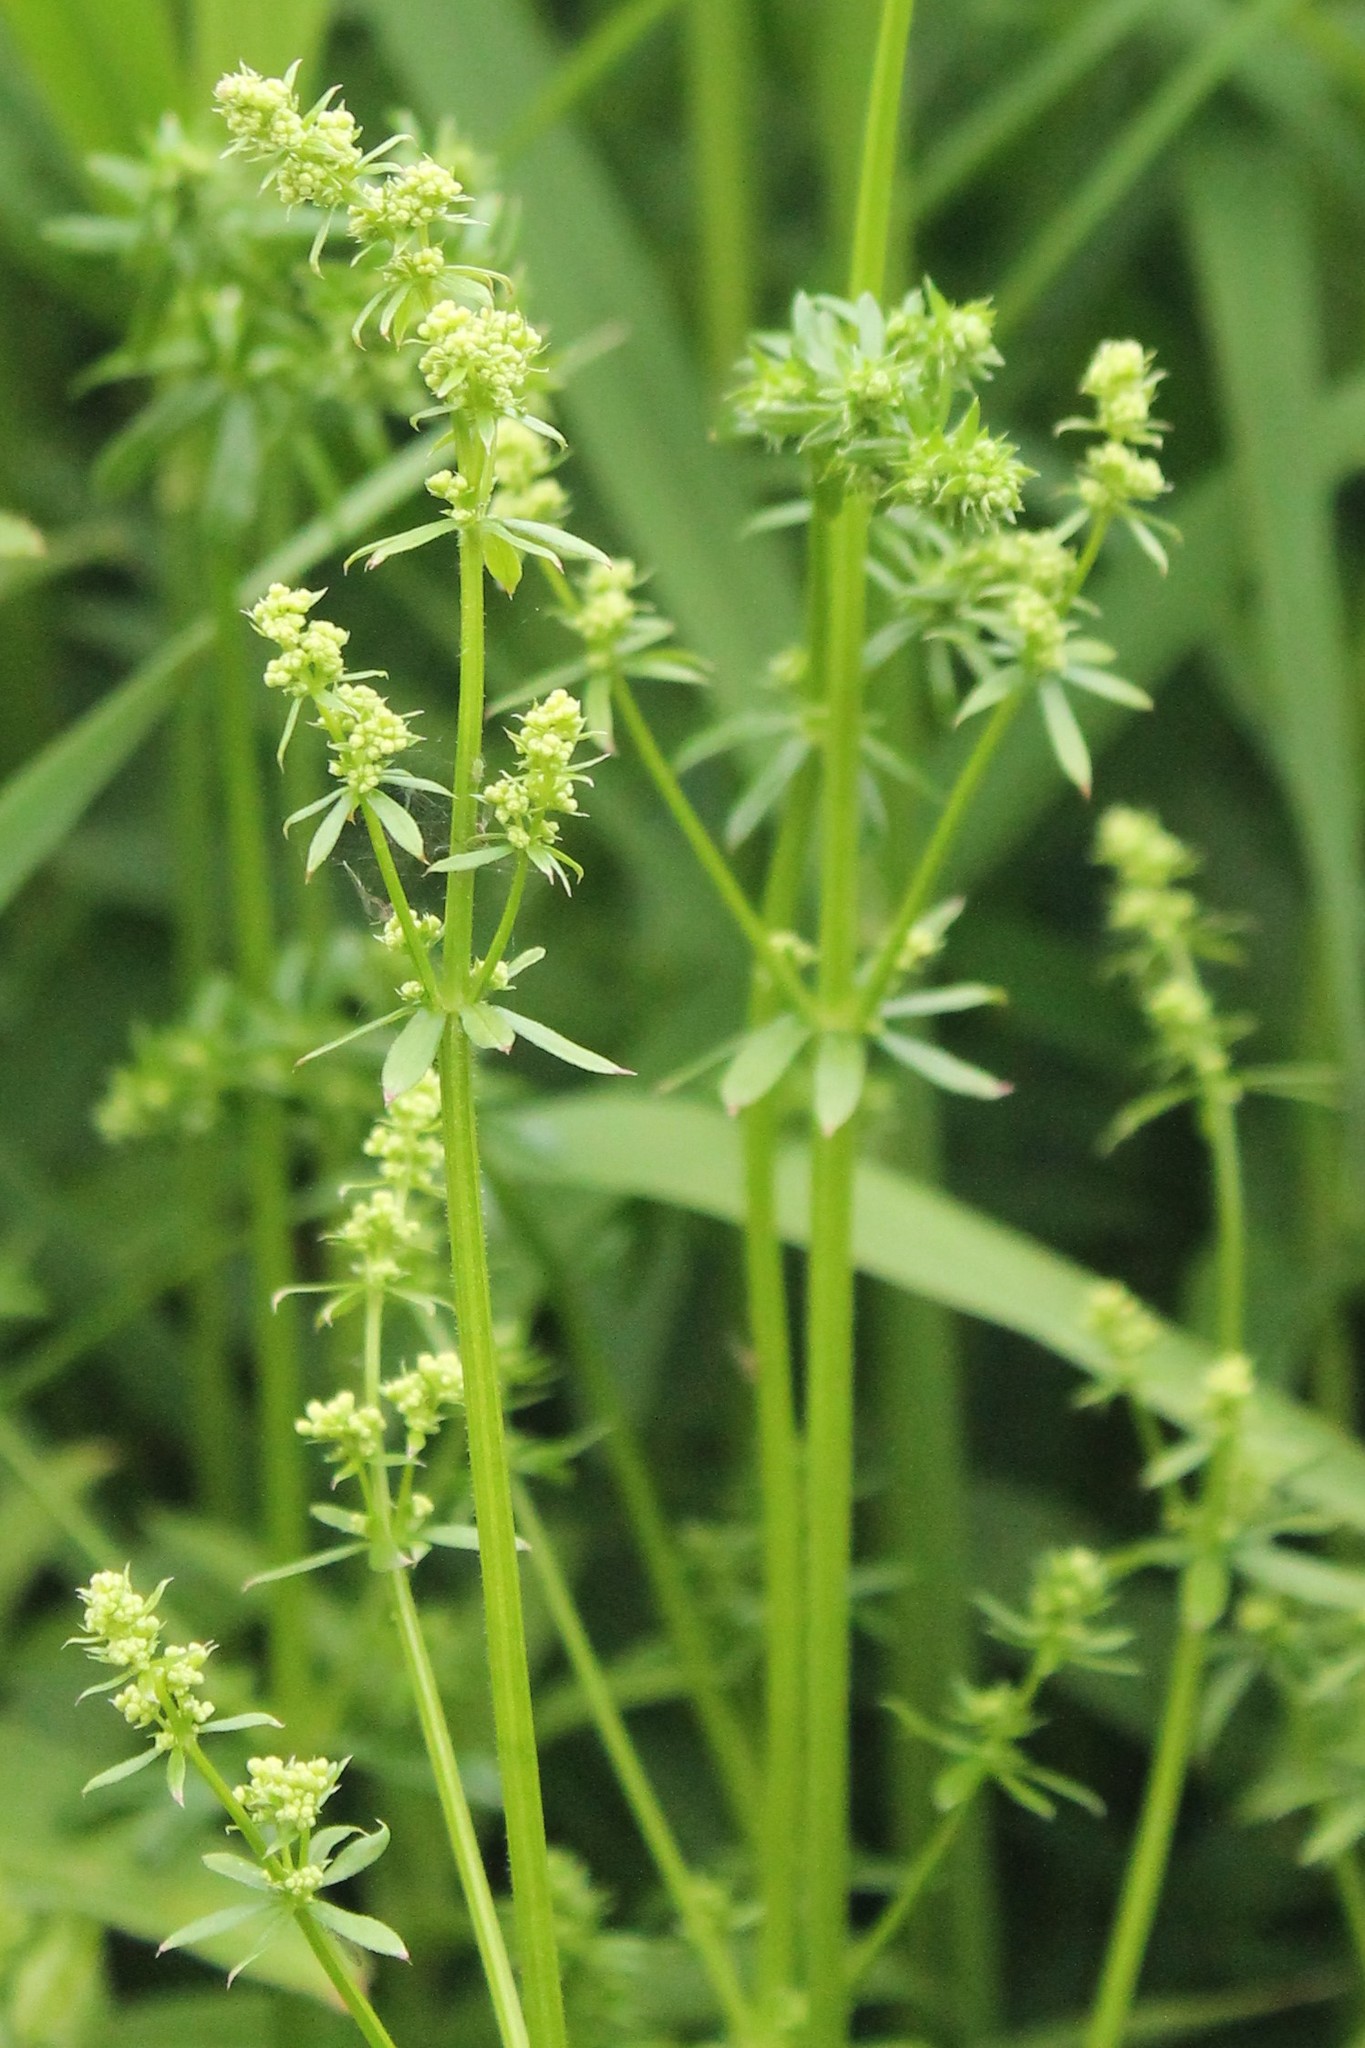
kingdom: Plantae
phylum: Tracheophyta
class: Magnoliopsida
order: Gentianales
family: Rubiaceae
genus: Galium
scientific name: Galium mollugo
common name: Hedge bedstraw
